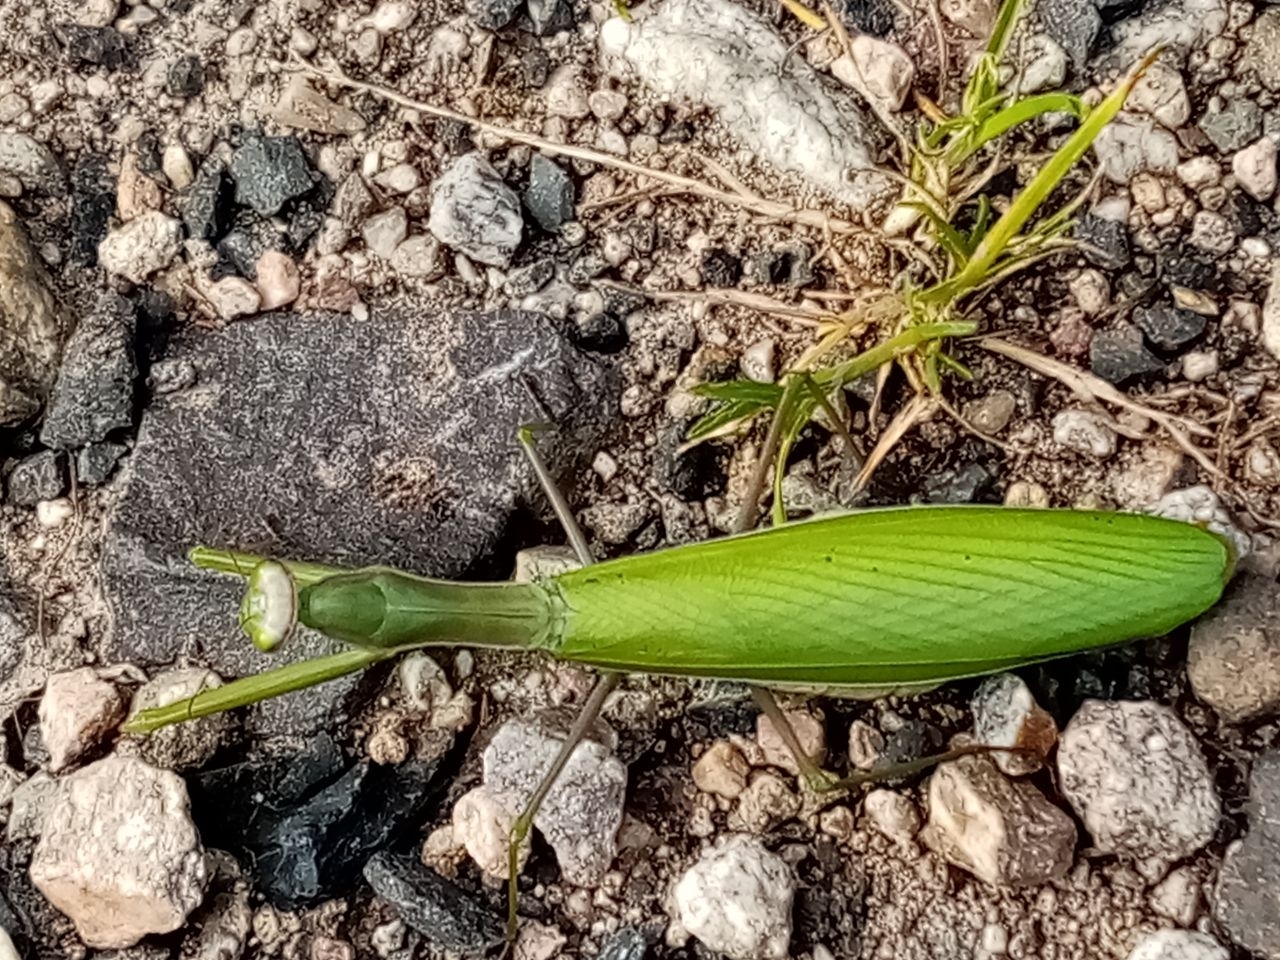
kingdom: Animalia
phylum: Arthropoda
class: Insecta
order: Mantodea
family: Mantidae
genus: Mantis
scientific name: Mantis religiosa
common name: Praying mantis
